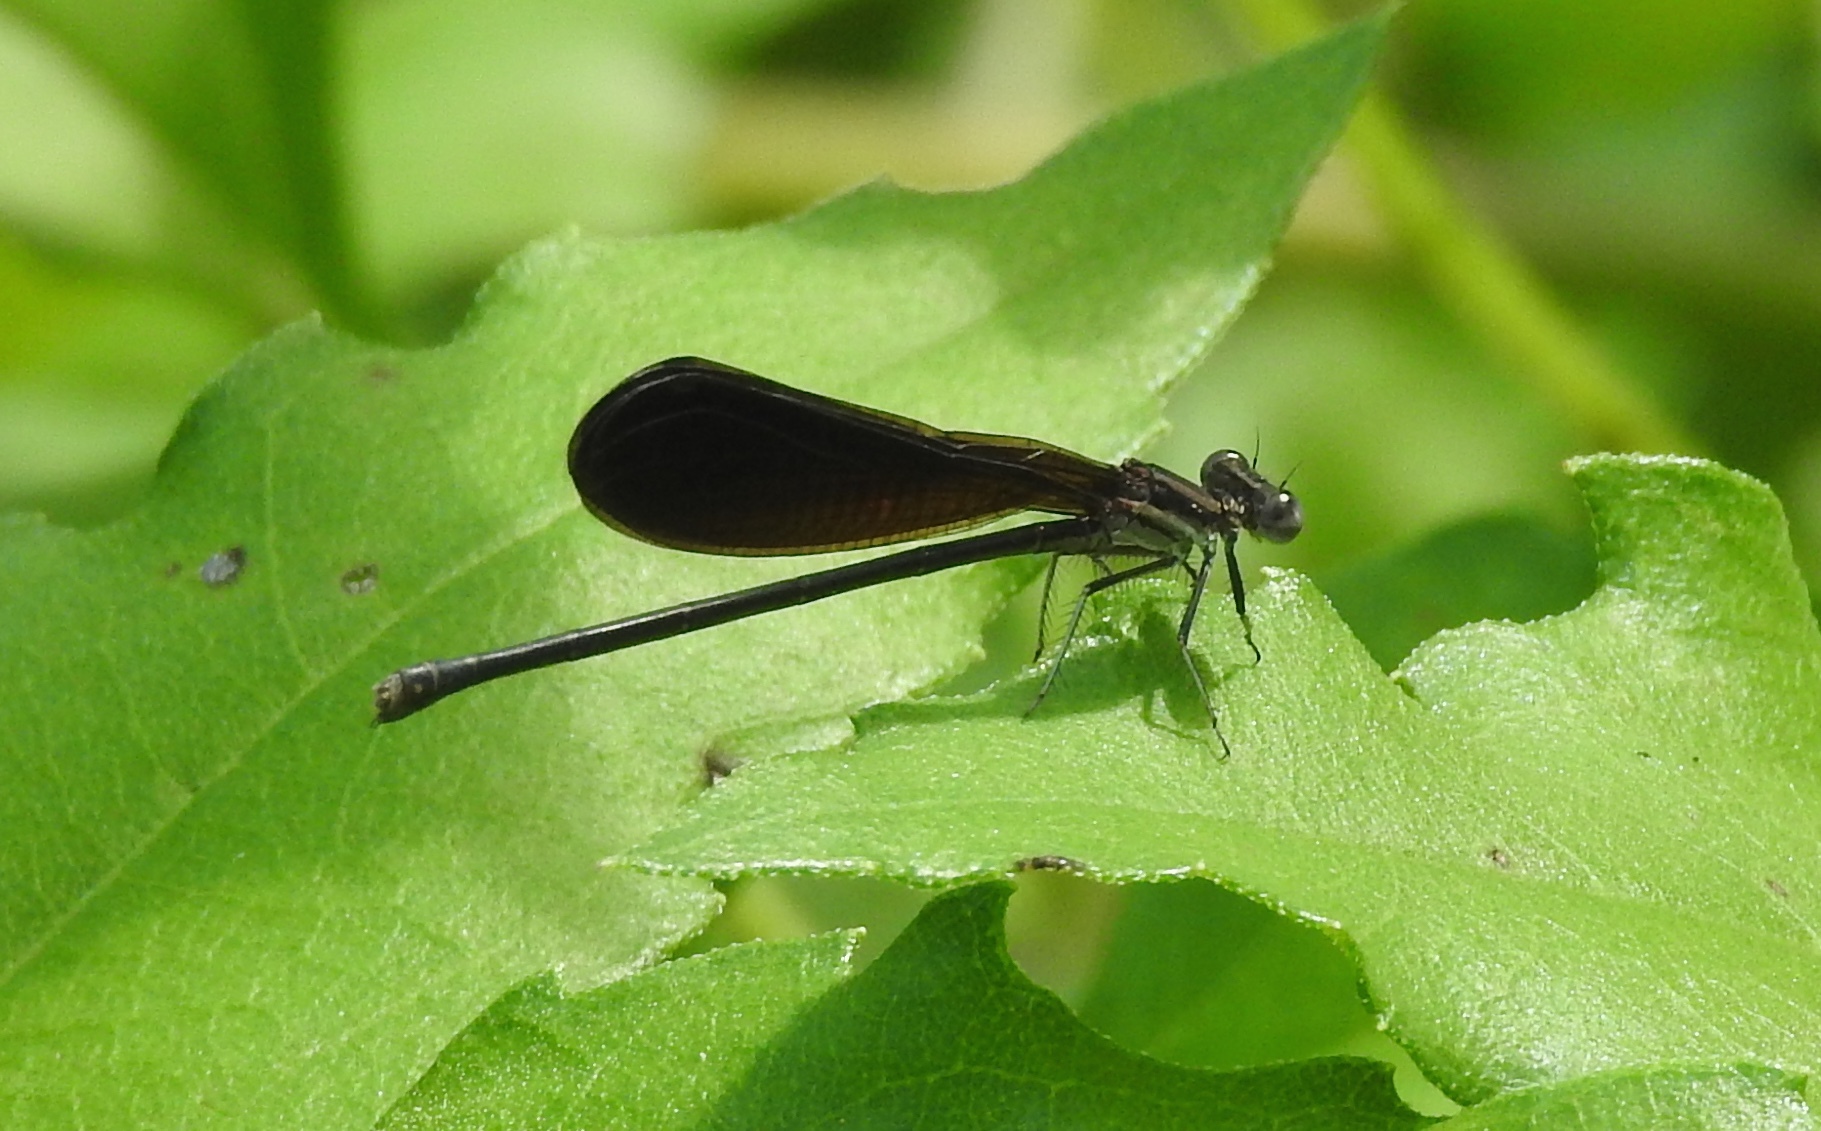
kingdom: Animalia
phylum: Arthropoda
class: Insecta
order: Odonata
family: Coenagrionidae
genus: Argia
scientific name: Argia fumipennis
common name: Variable dancer
